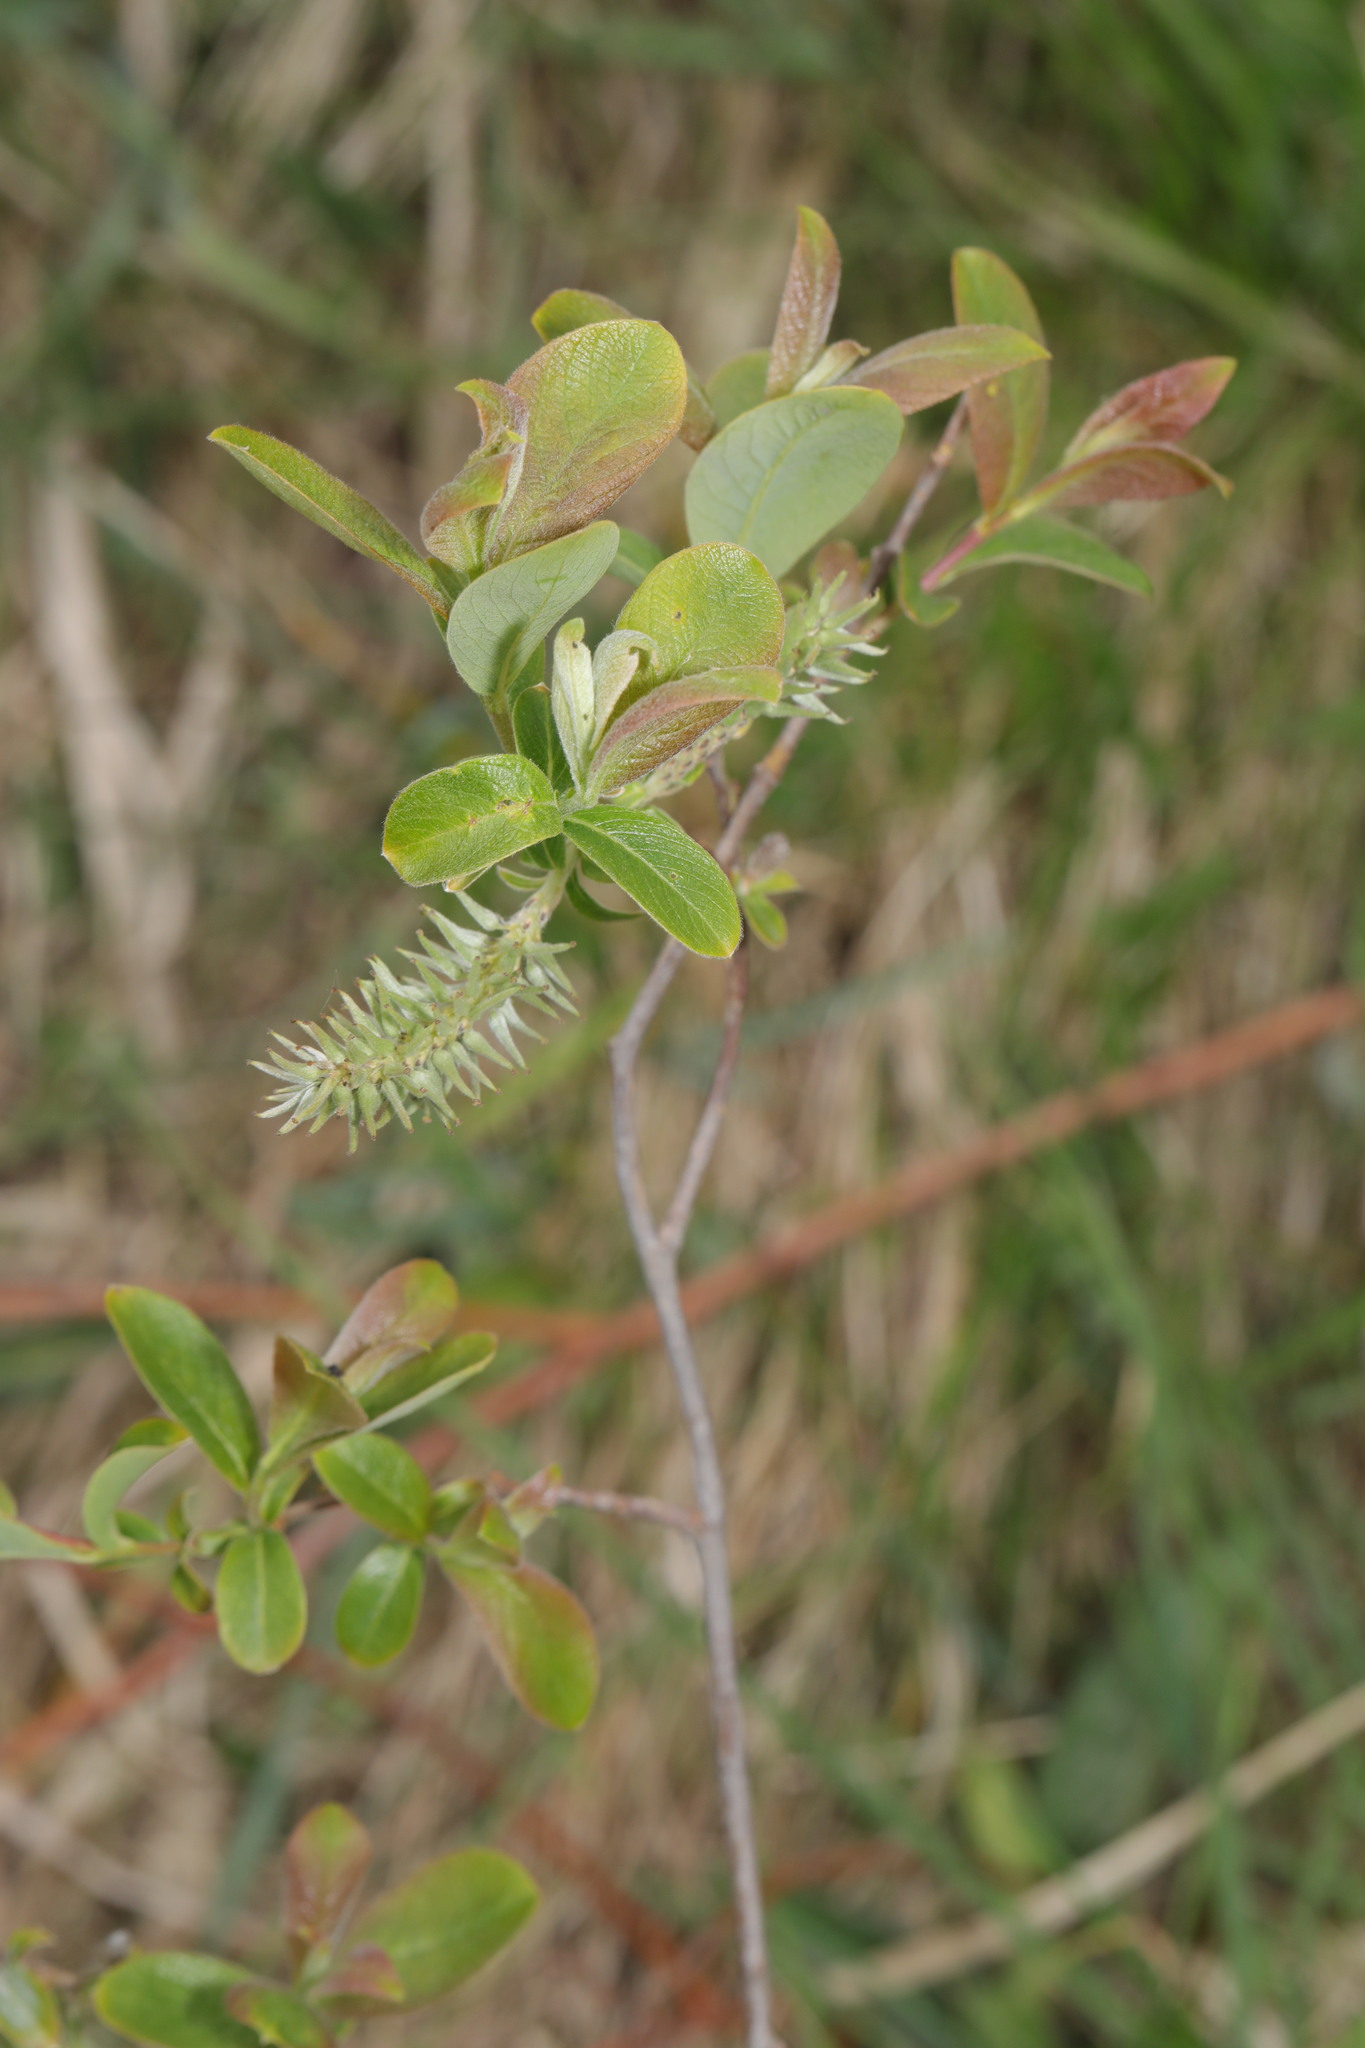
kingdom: Plantae
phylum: Tracheophyta
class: Magnoliopsida
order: Malpighiales
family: Salicaceae
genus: Salix
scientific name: Salix cinerea
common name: Common sallow
